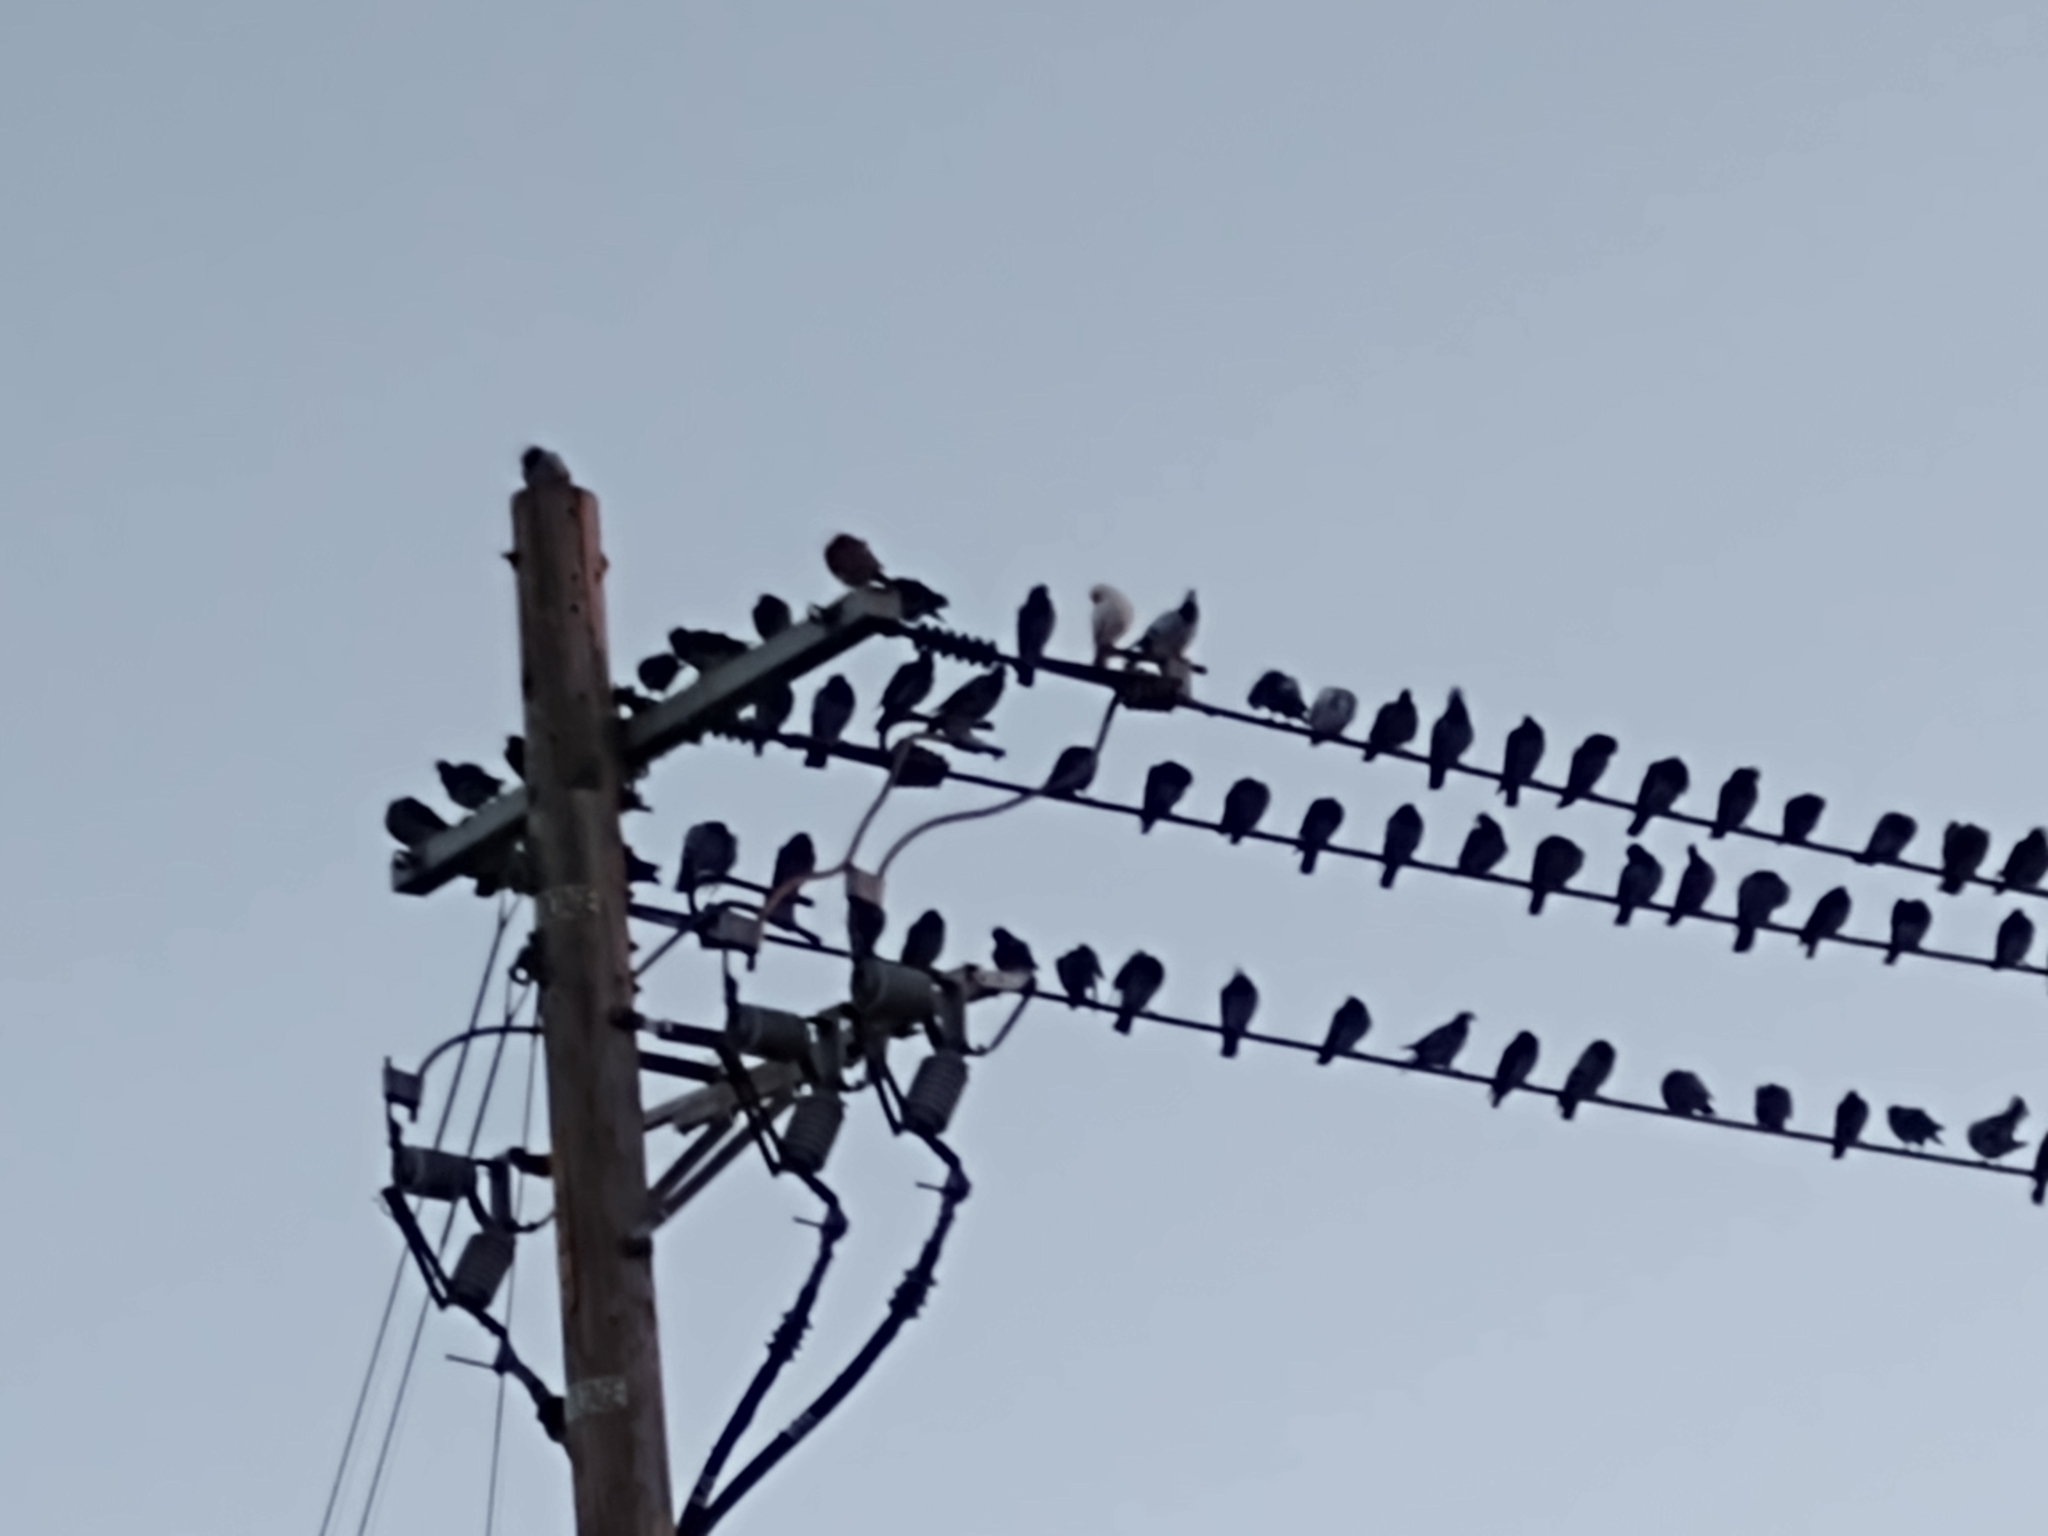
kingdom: Animalia
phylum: Chordata
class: Aves
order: Columbiformes
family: Columbidae
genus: Columba
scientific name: Columba livia
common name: Rock pigeon
